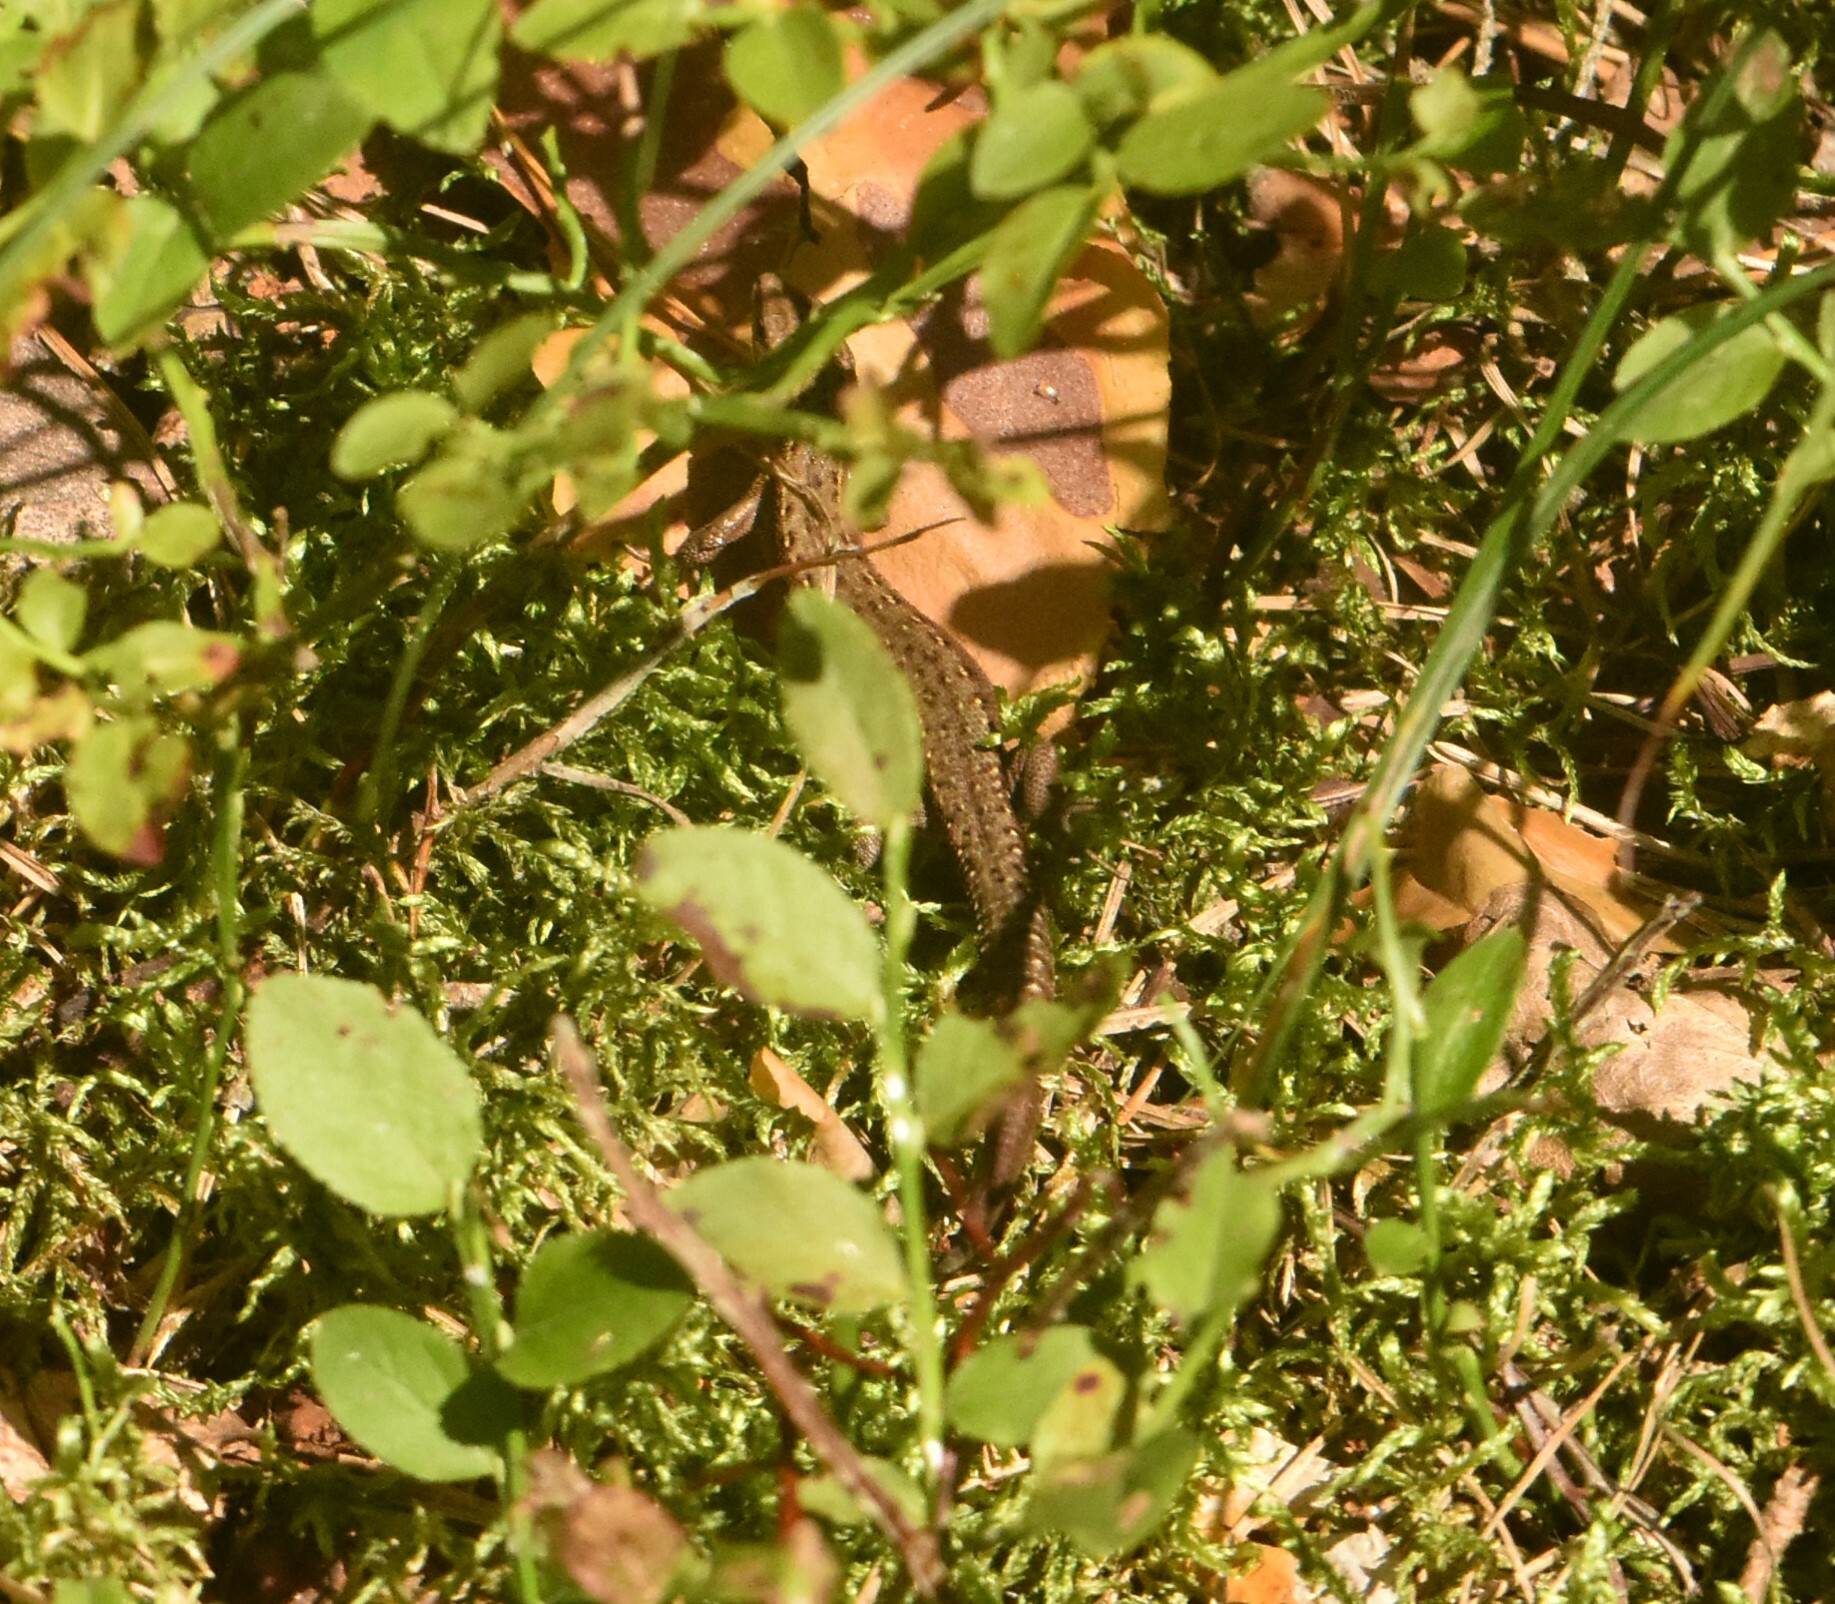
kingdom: Animalia
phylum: Chordata
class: Squamata
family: Lacertidae
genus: Zootoca
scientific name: Zootoca vivipara
